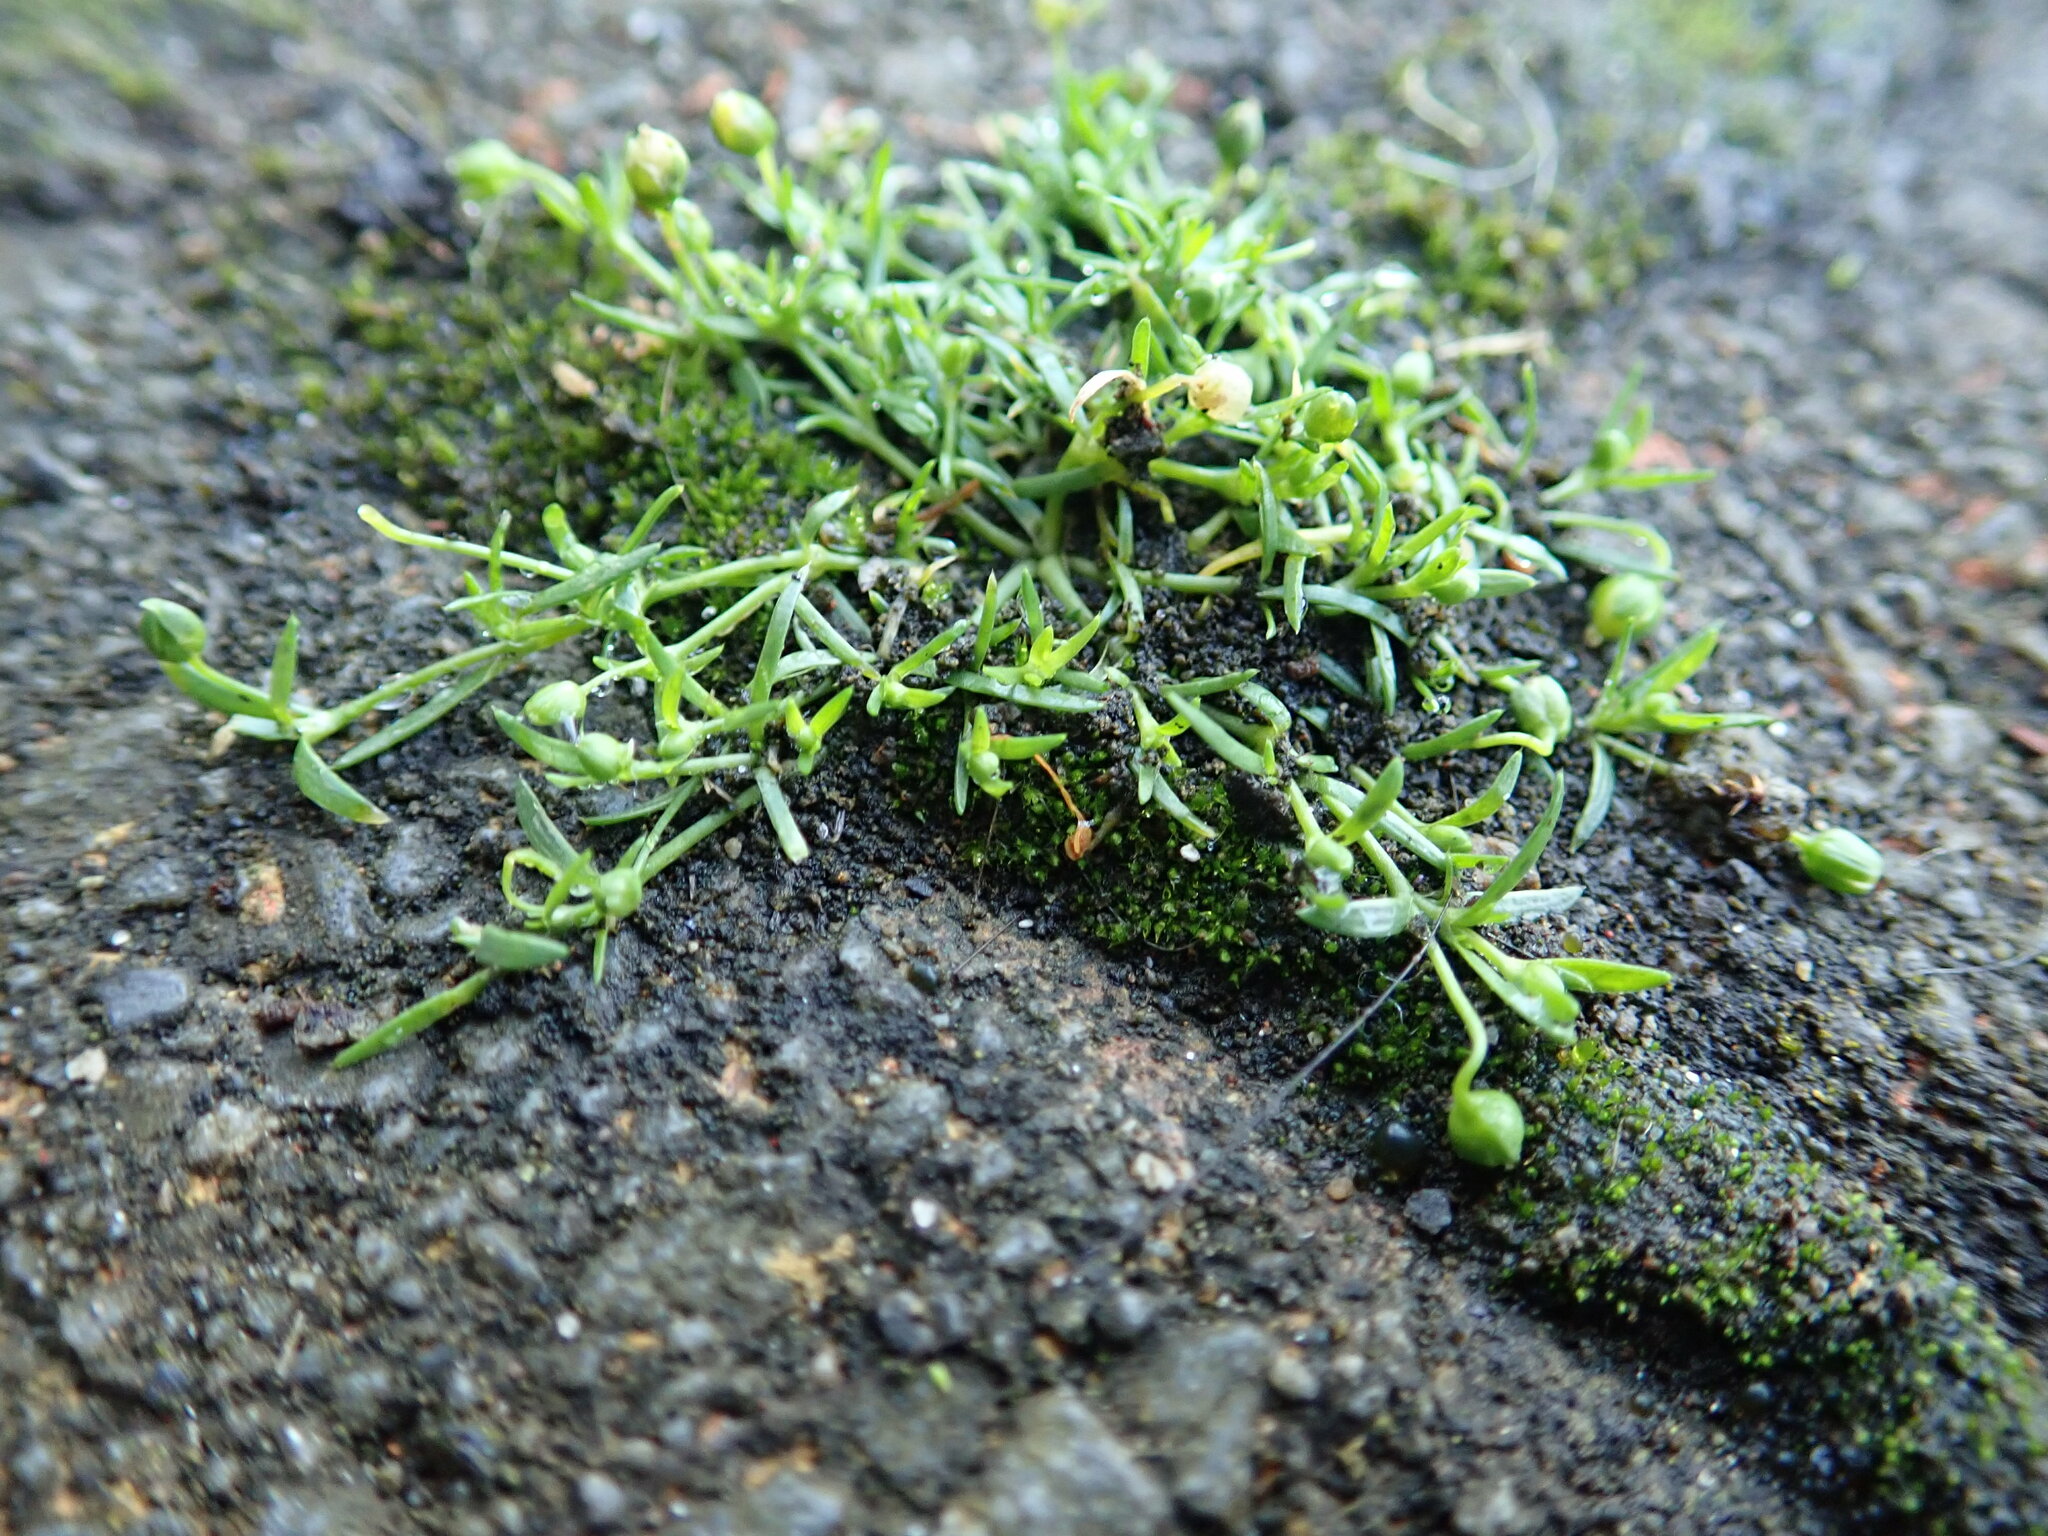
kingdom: Plantae
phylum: Tracheophyta
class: Magnoliopsida
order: Caryophyllales
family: Caryophyllaceae
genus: Sagina
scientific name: Sagina procumbens
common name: Procumbent pearlwort
